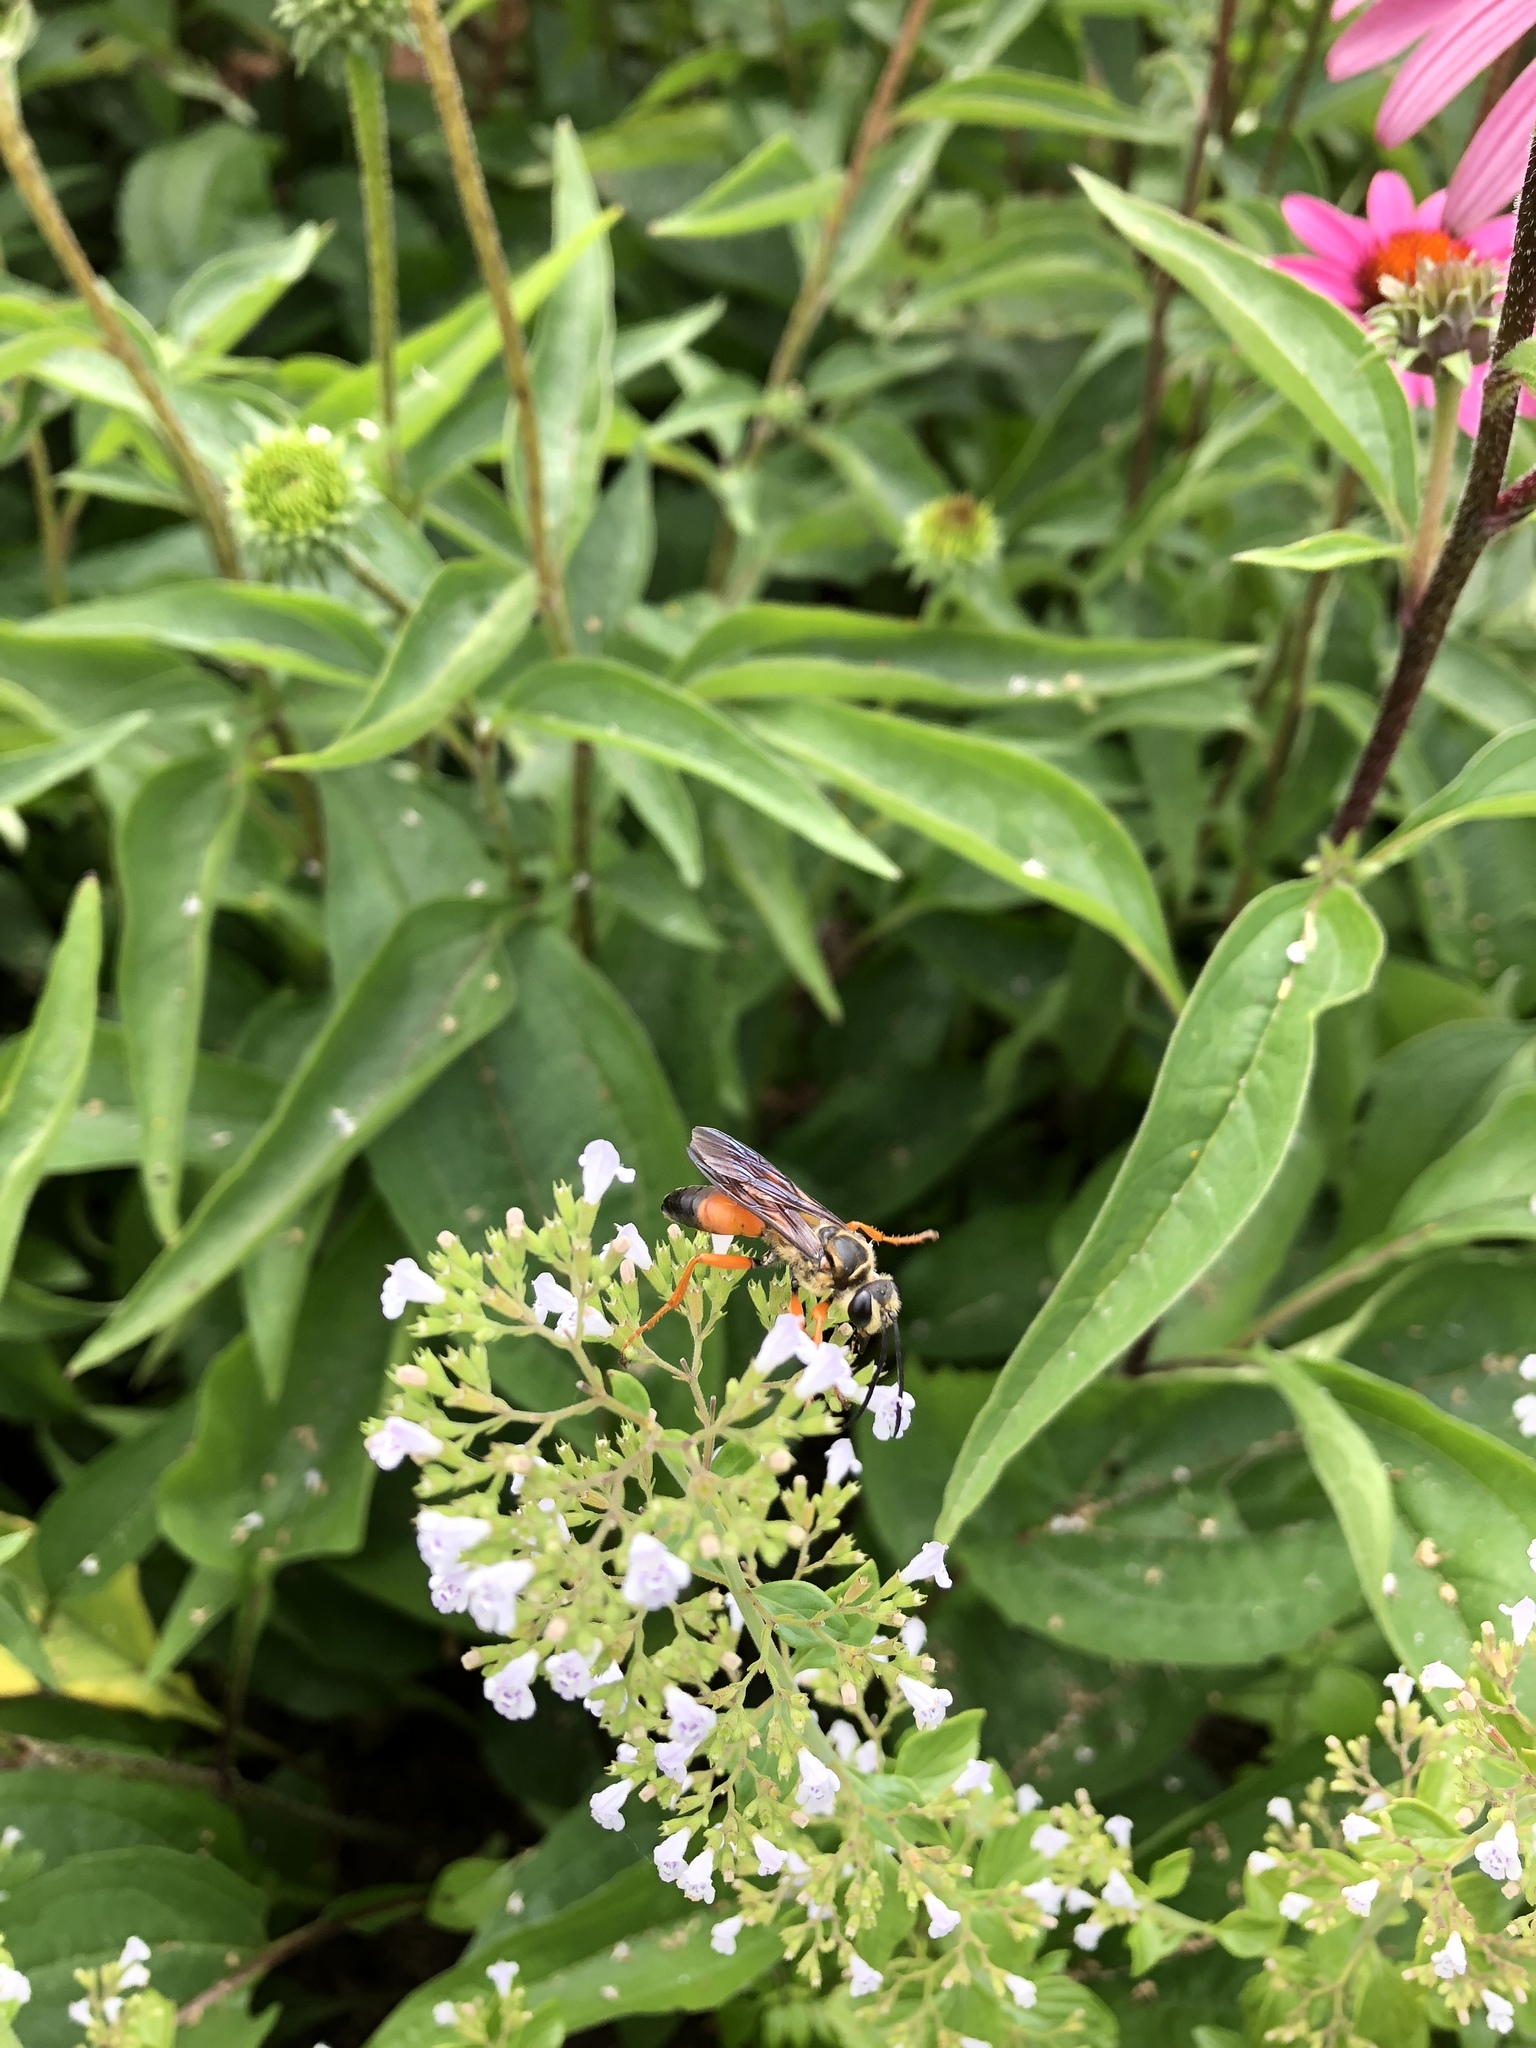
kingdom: Animalia
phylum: Arthropoda
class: Insecta
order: Hymenoptera
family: Sphecidae
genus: Sphex
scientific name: Sphex ichneumoneus
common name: Great golden digger wasp
